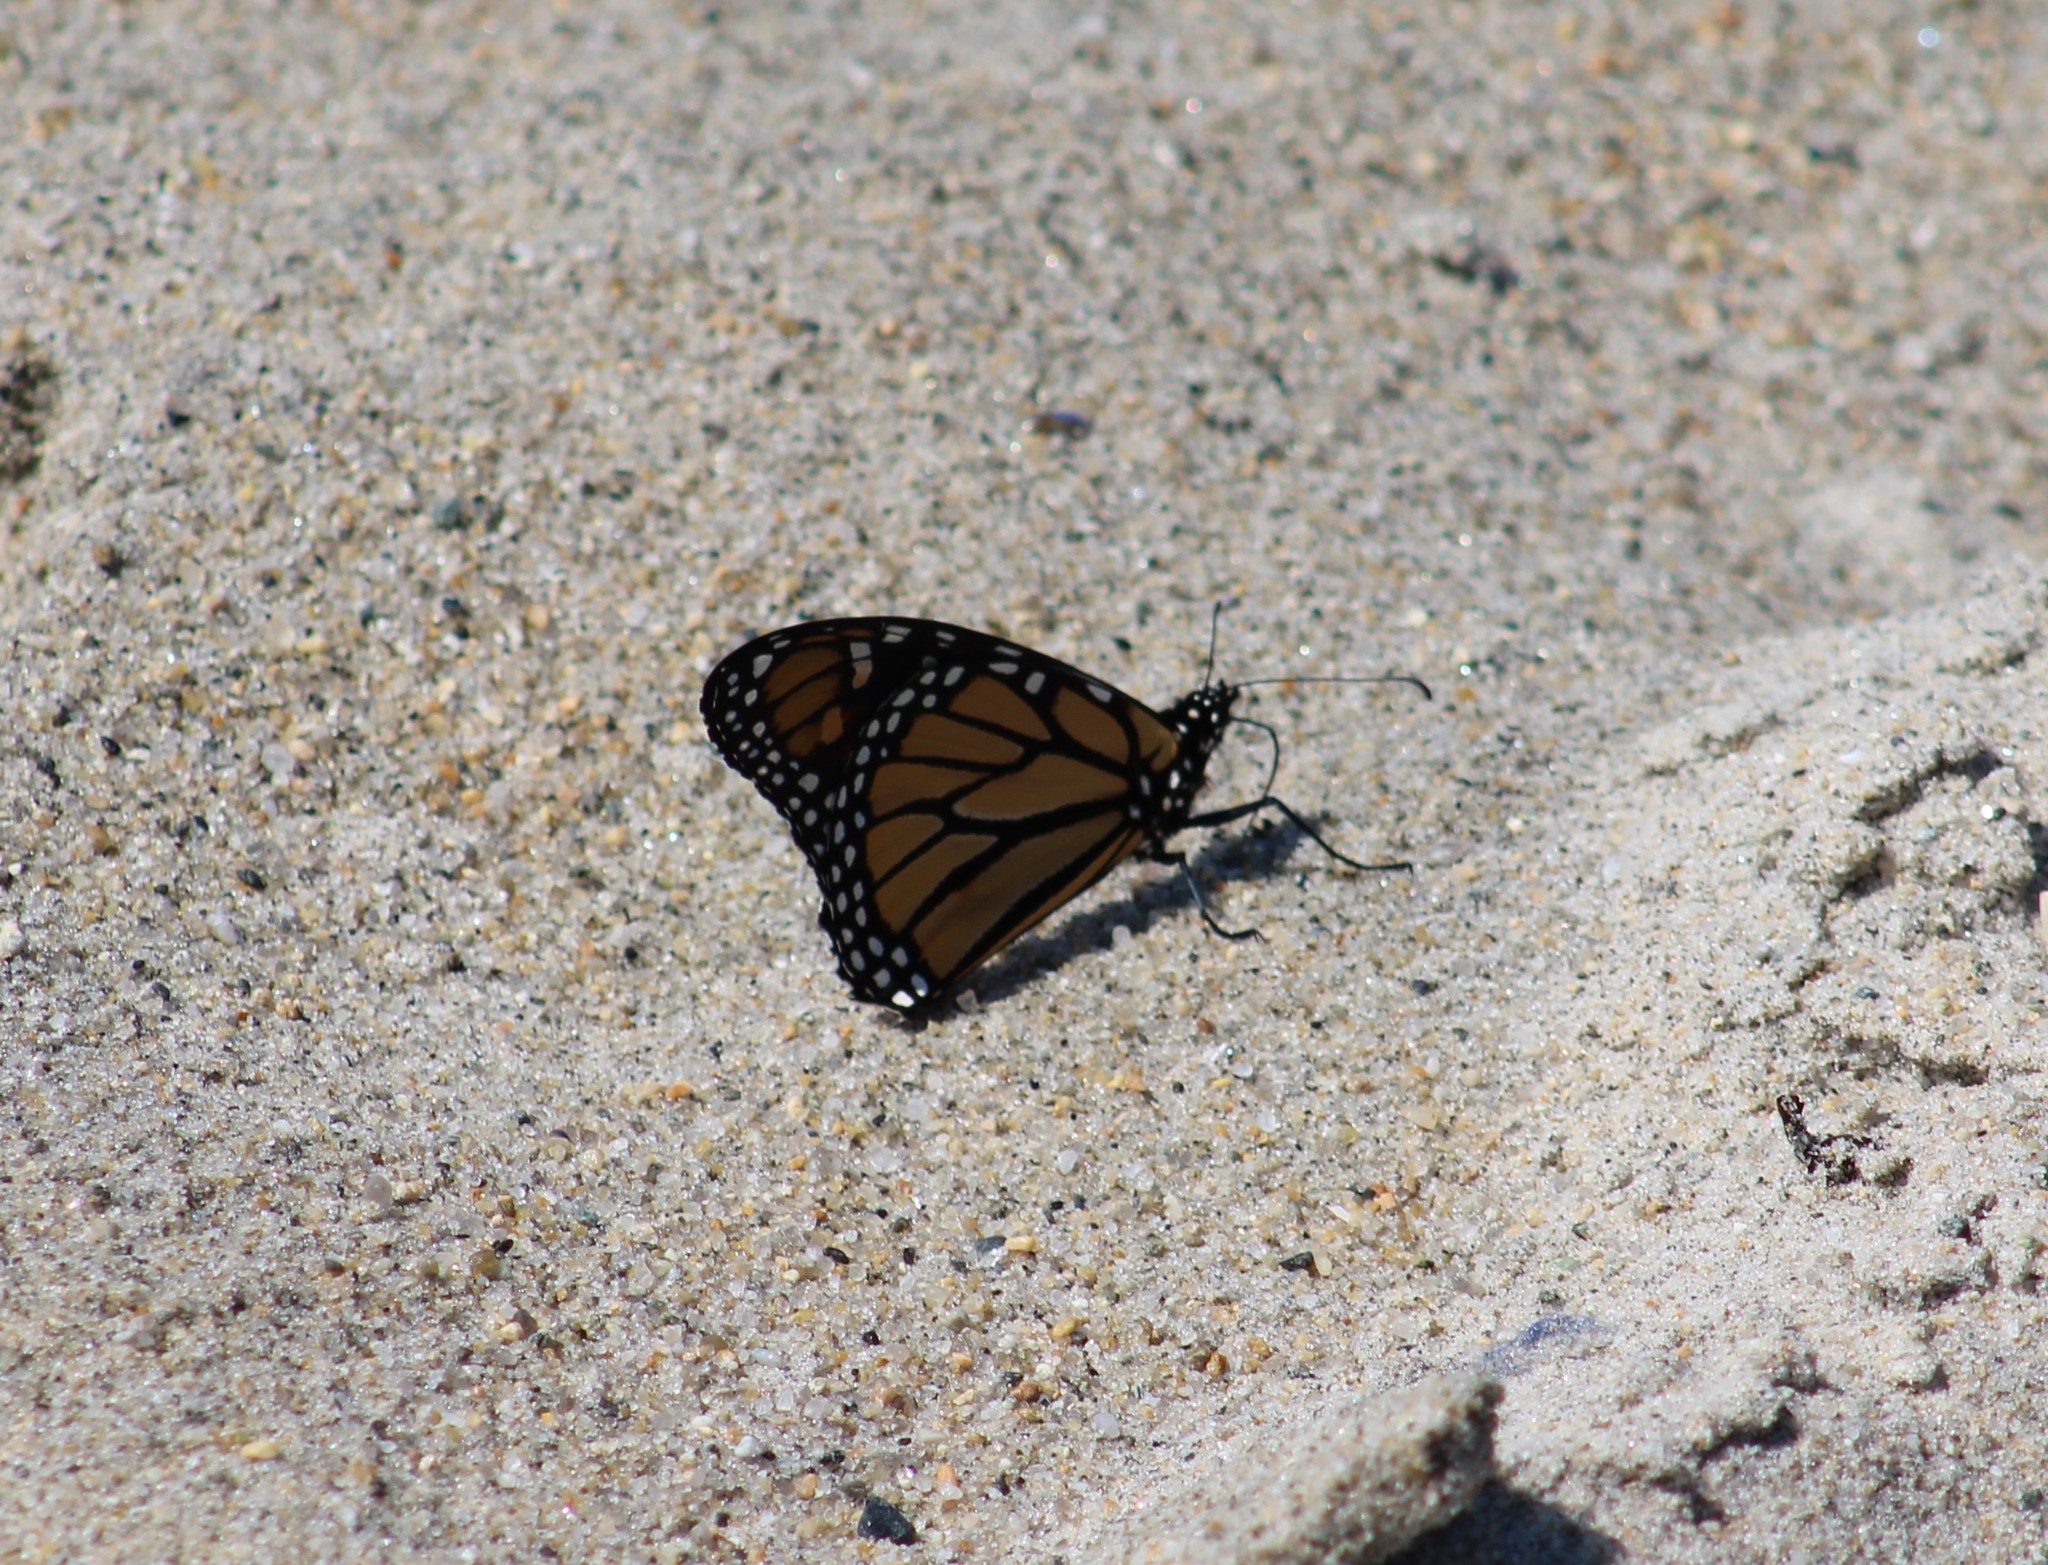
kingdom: Animalia
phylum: Arthropoda
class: Insecta
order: Lepidoptera
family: Nymphalidae
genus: Danaus
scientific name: Danaus plexippus
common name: Monarch
